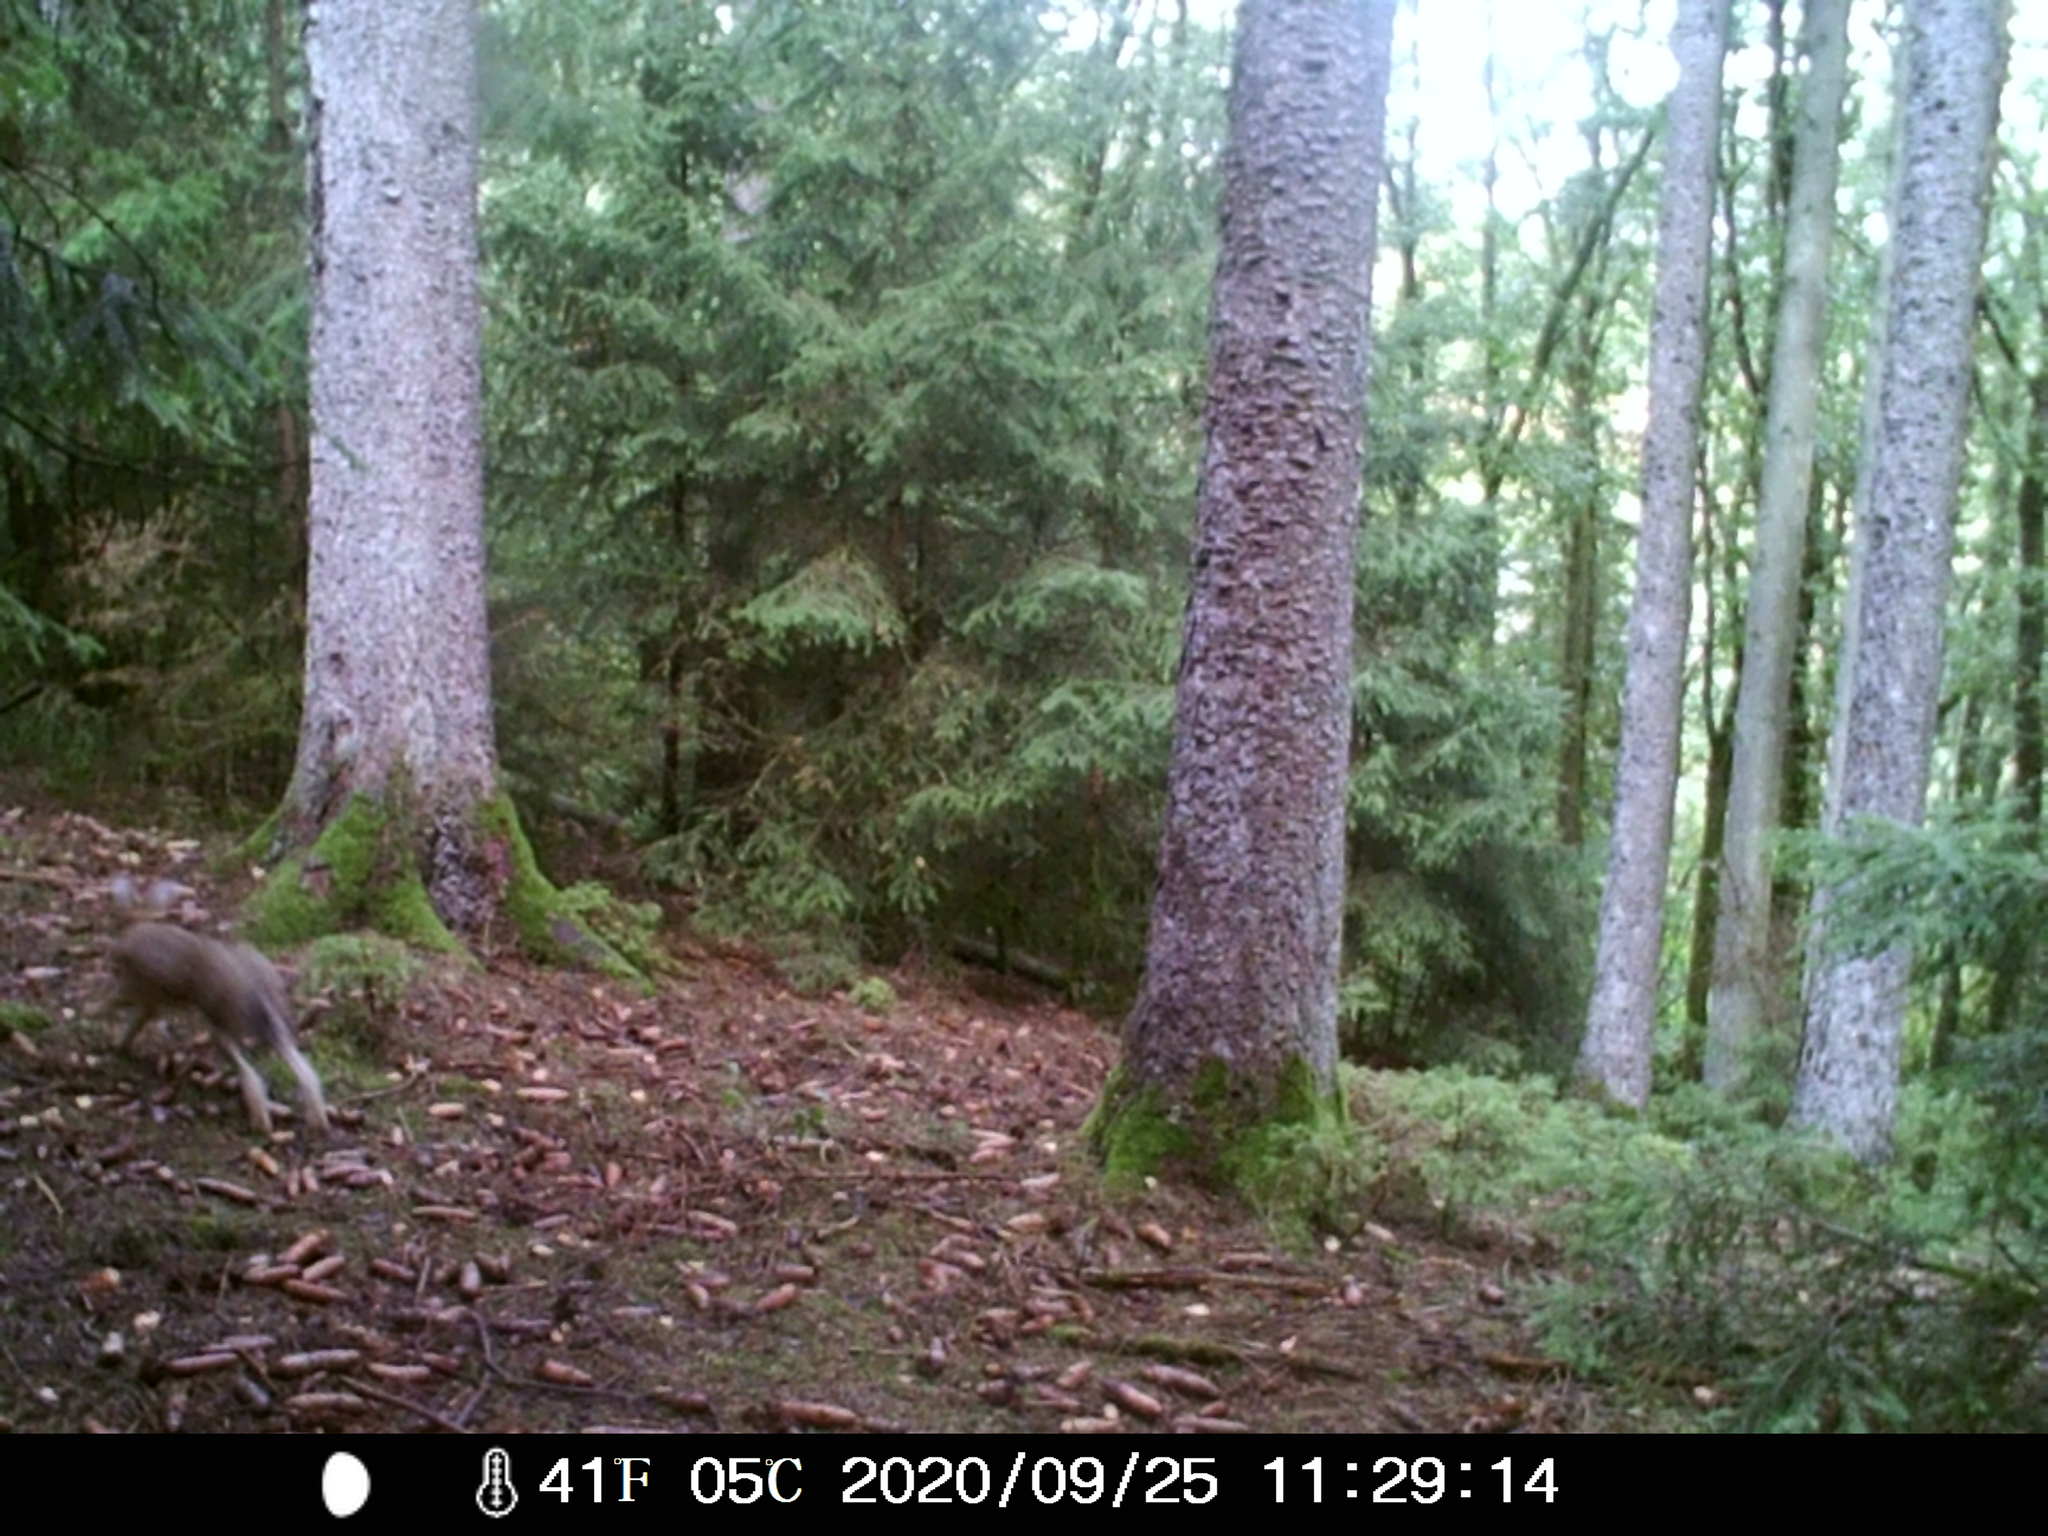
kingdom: Animalia
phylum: Chordata
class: Mammalia
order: Lagomorpha
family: Leporidae
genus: Lepus
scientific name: Lepus europaeus
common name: European hare
